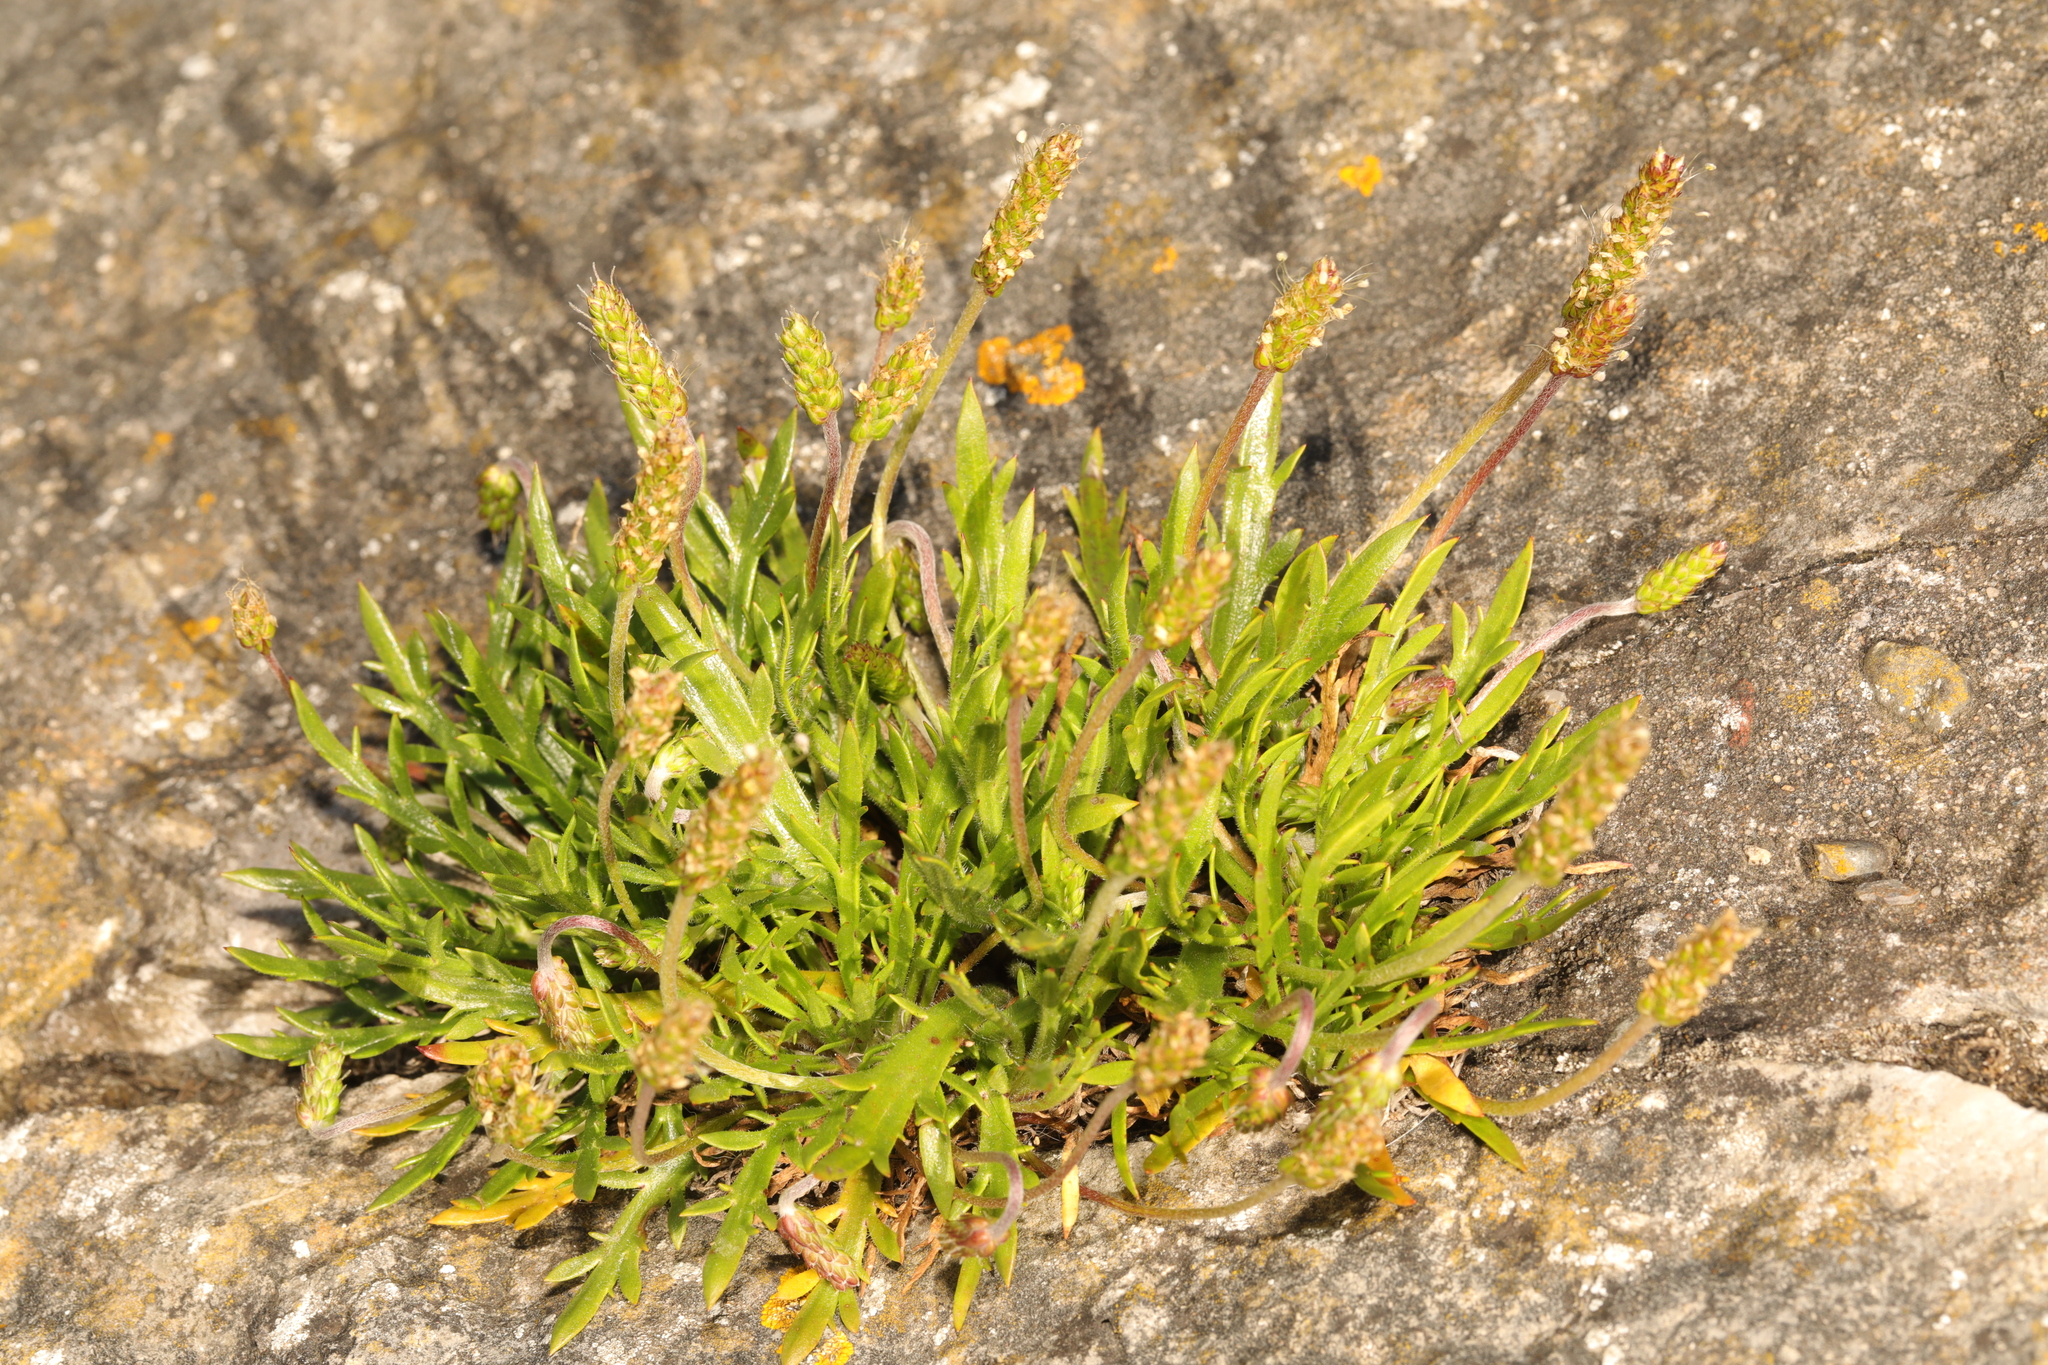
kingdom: Plantae
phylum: Tracheophyta
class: Magnoliopsida
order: Lamiales
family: Plantaginaceae
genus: Plantago
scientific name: Plantago coronopus
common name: Buck's-horn plantain
